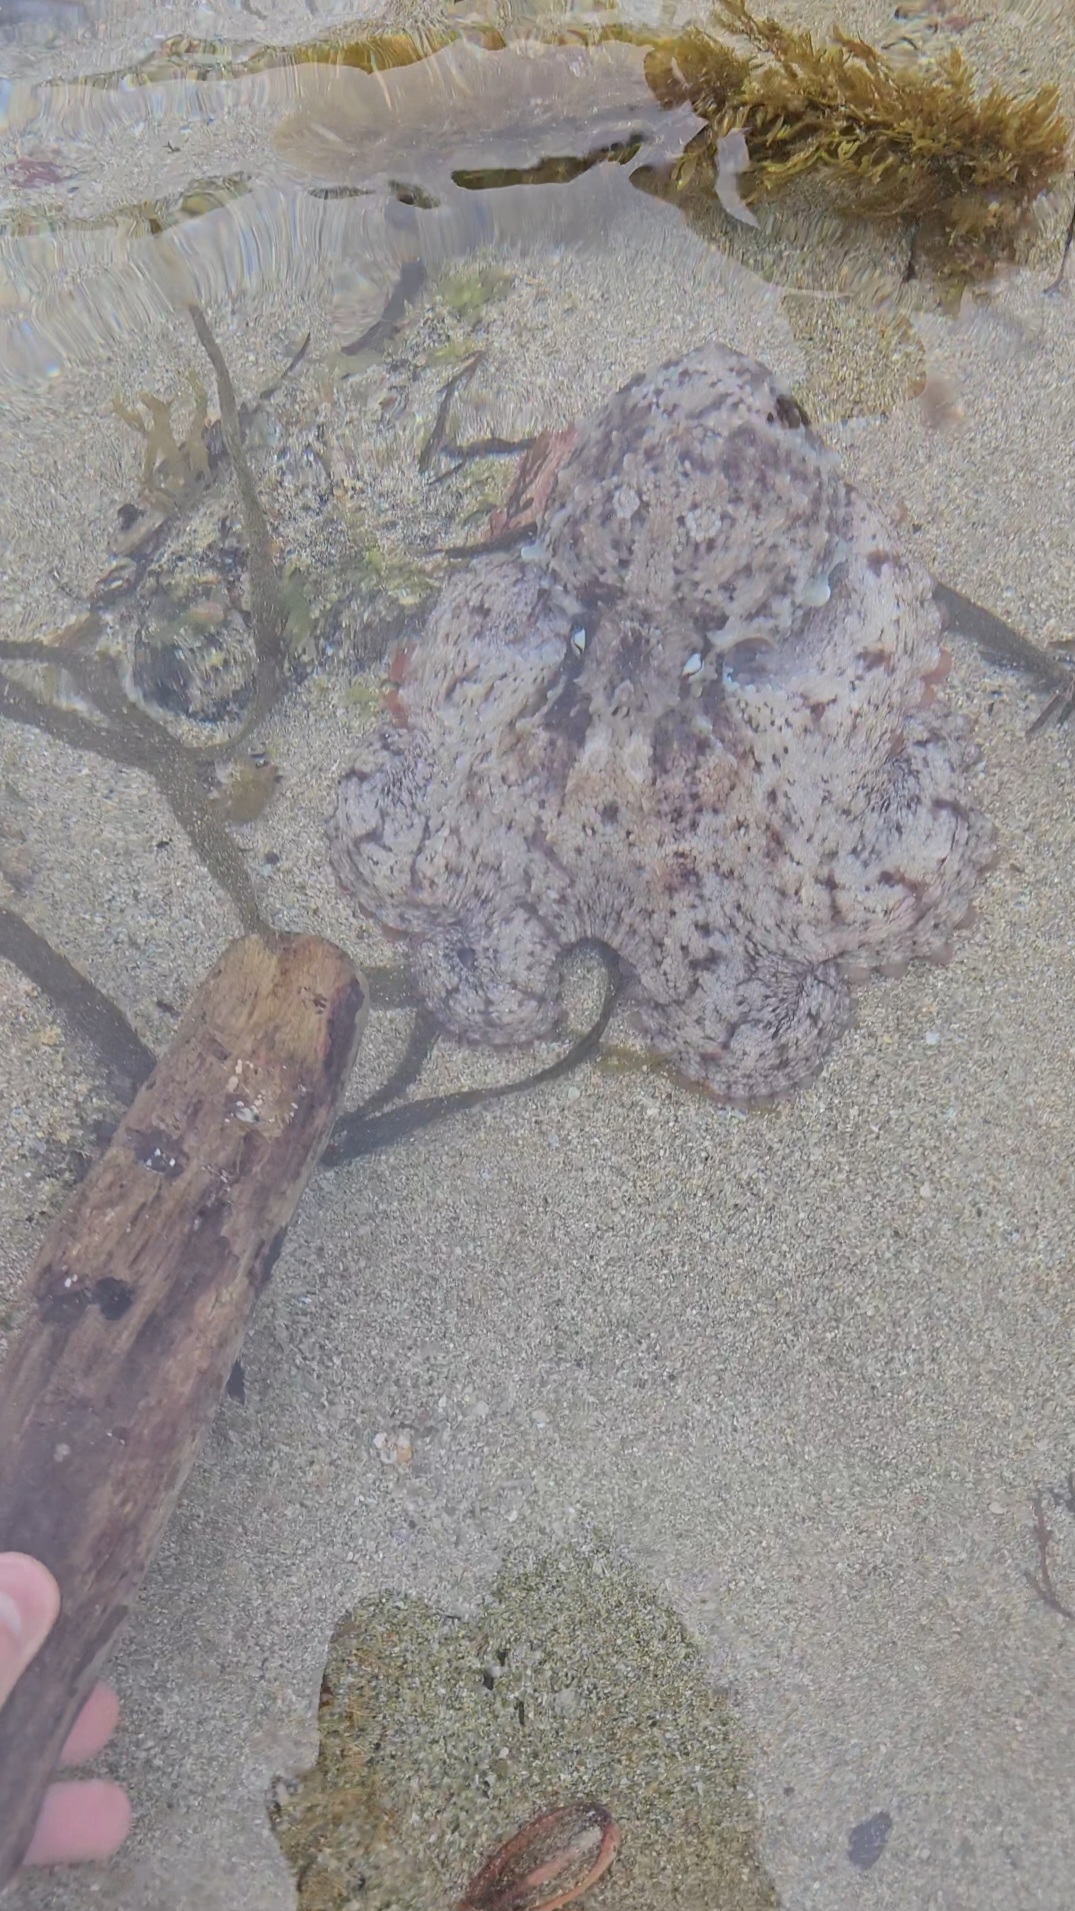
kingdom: Animalia
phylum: Mollusca
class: Cephalopoda
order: Octopoda
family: Octopodidae
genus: Octopus
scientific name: Octopus tetricus
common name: Sydney octopus
